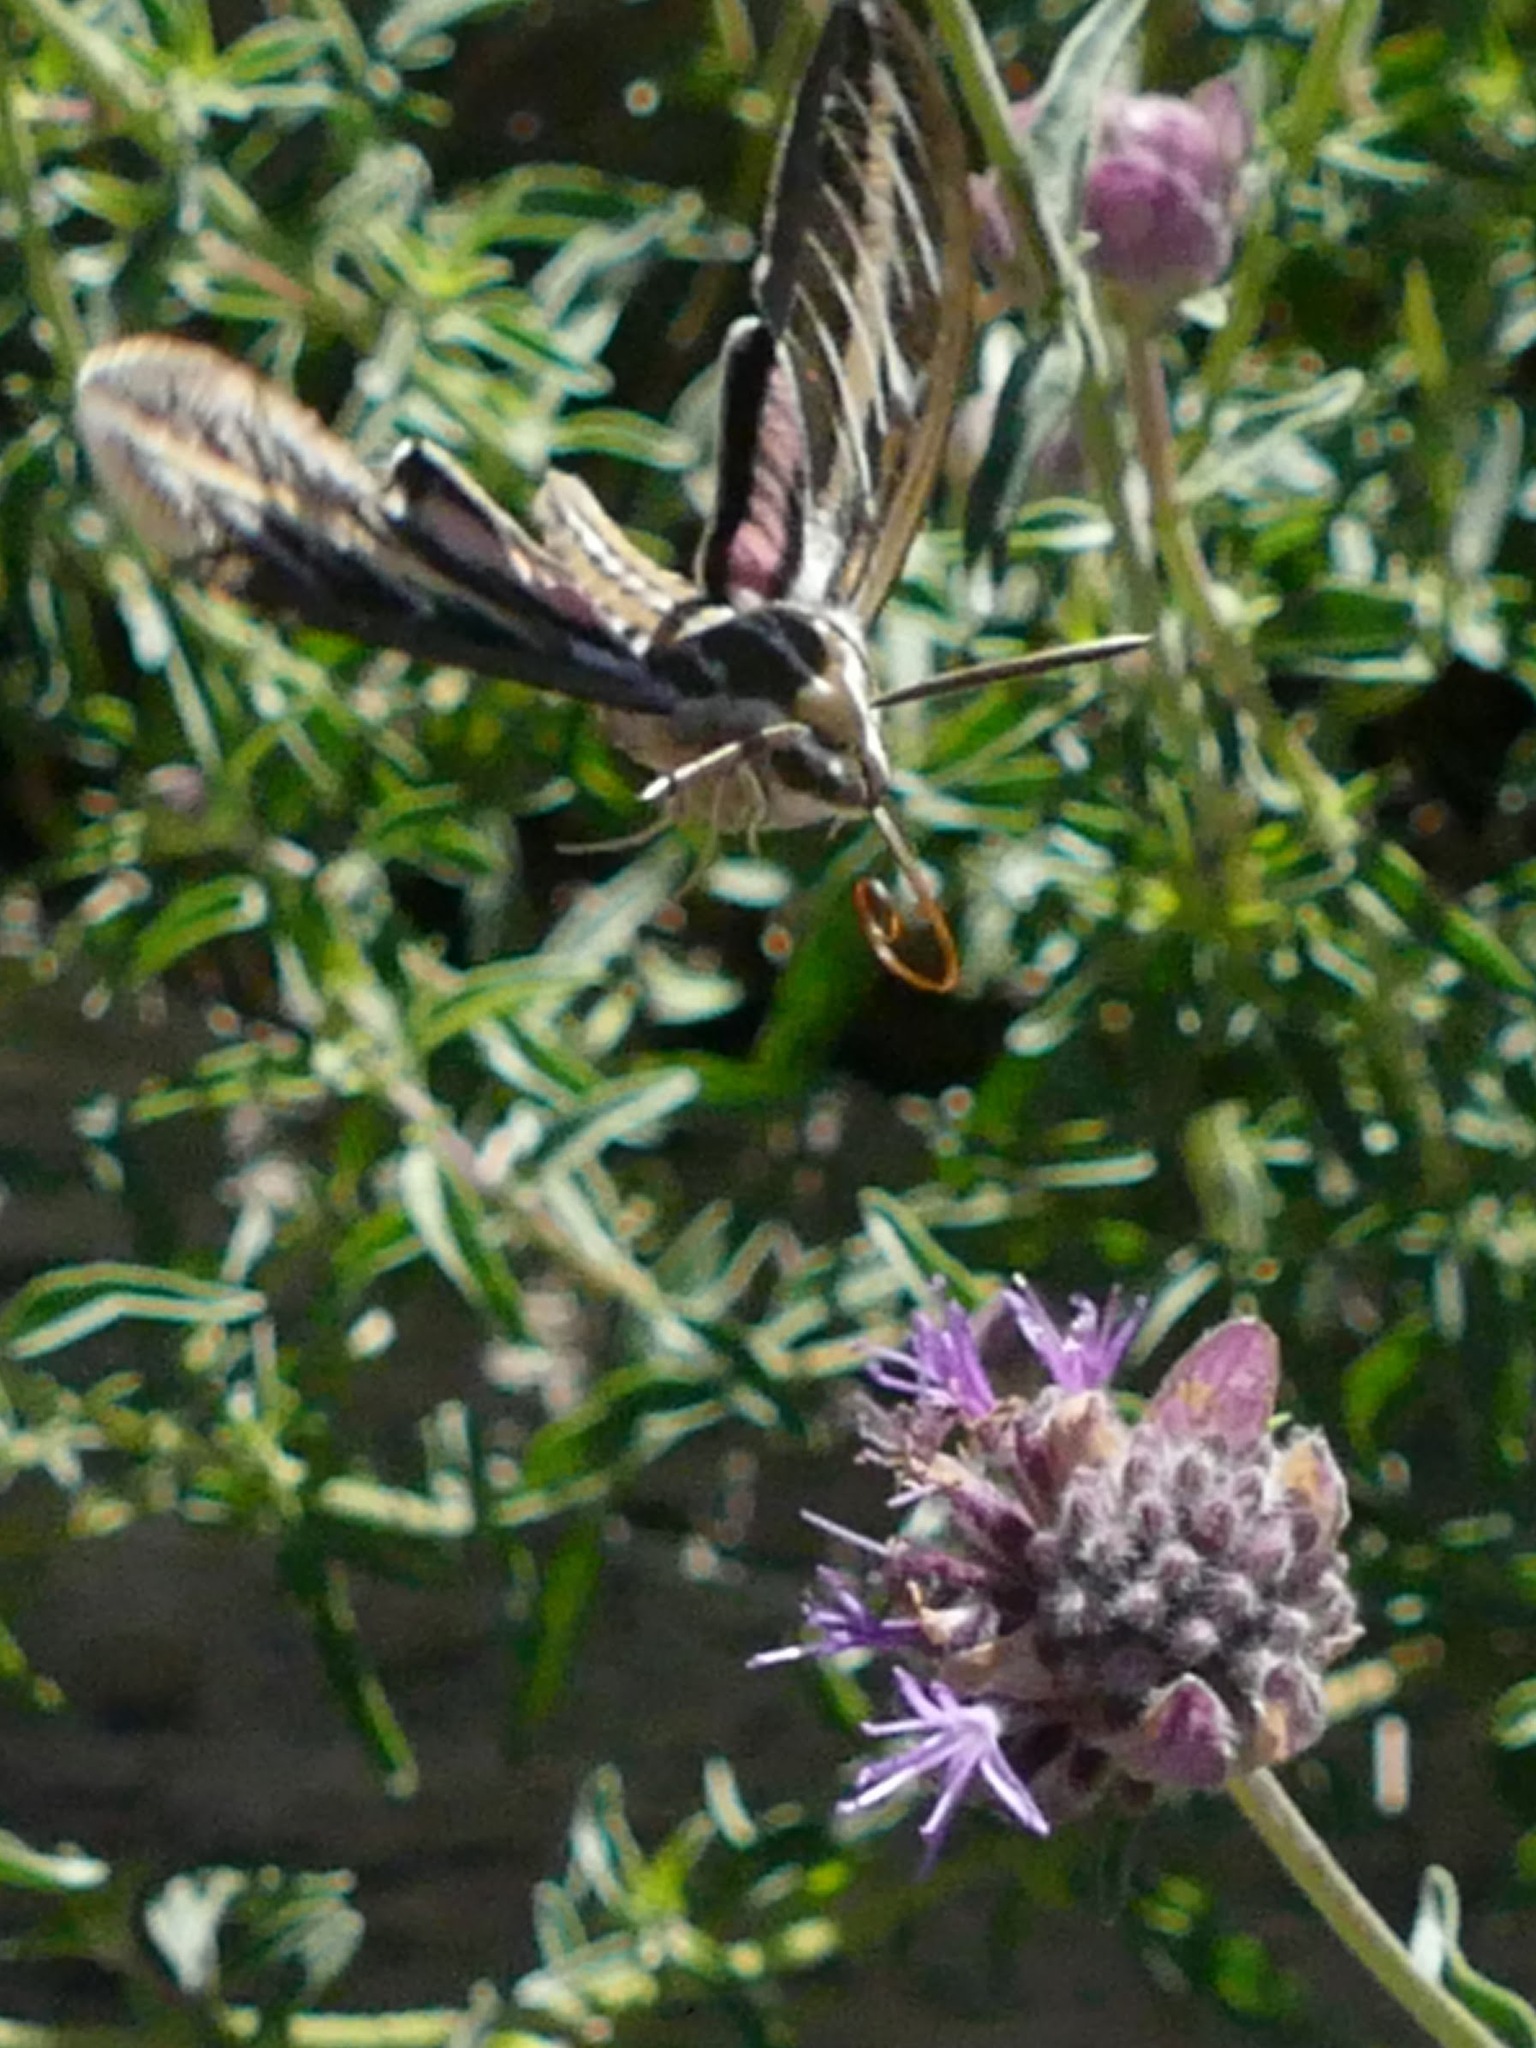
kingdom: Animalia
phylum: Arthropoda
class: Insecta
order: Lepidoptera
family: Sphingidae
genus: Hyles
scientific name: Hyles lineata
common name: White-lined sphinx
